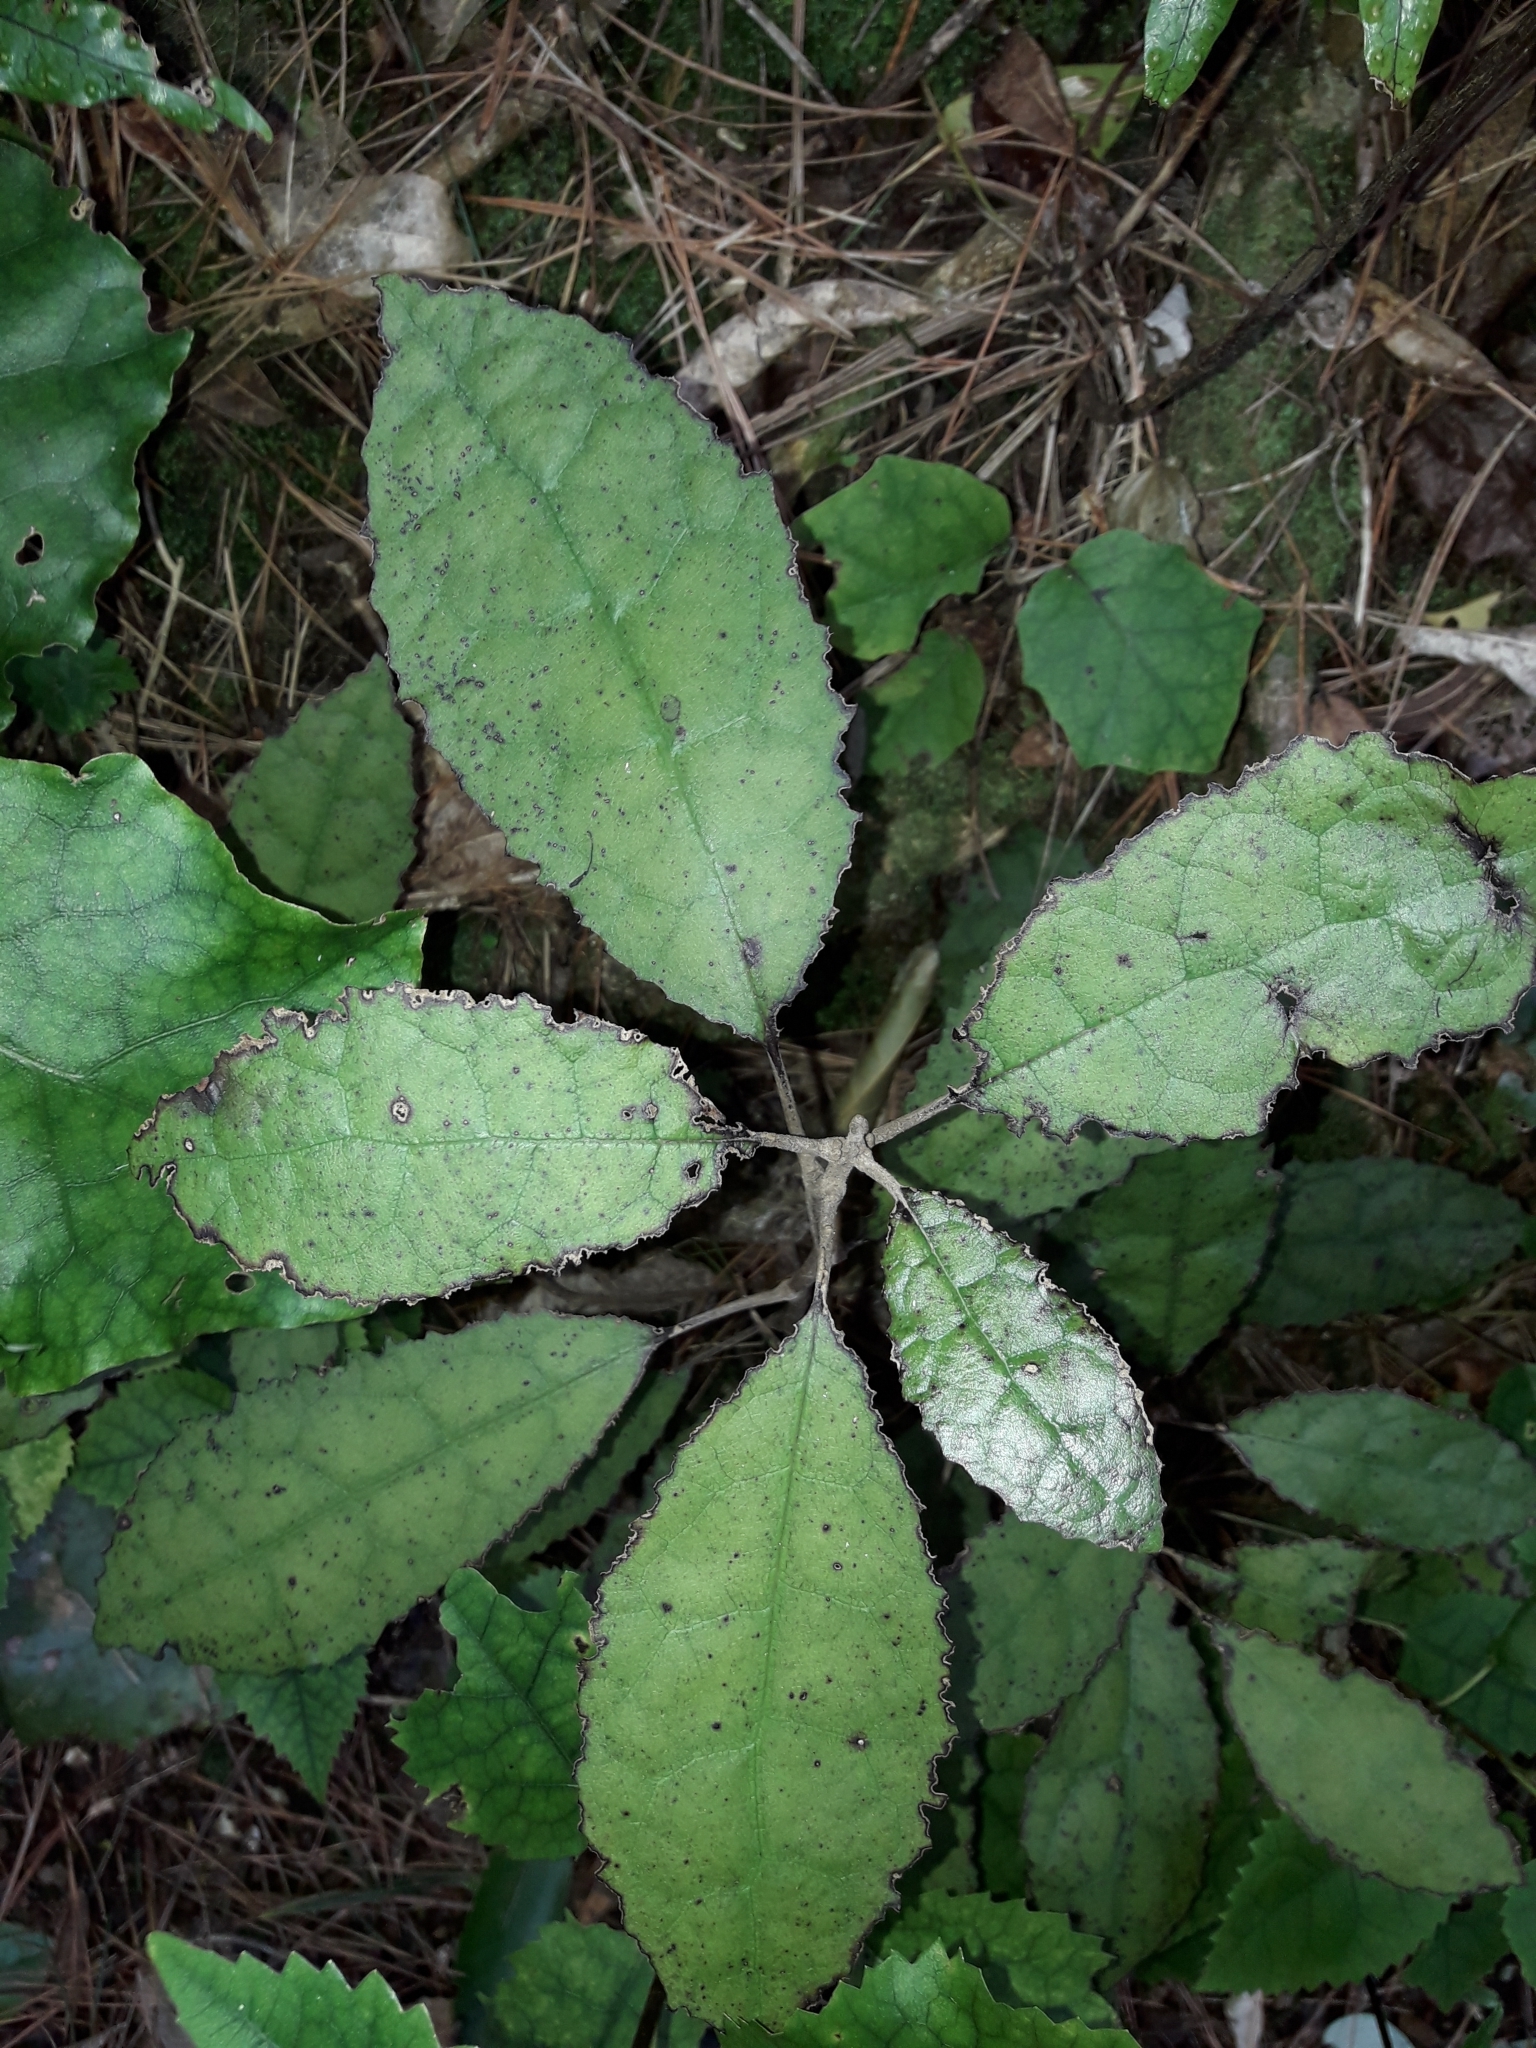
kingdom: Plantae
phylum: Tracheophyta
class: Magnoliopsida
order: Asterales
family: Asteraceae
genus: Olearia
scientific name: Olearia rani
